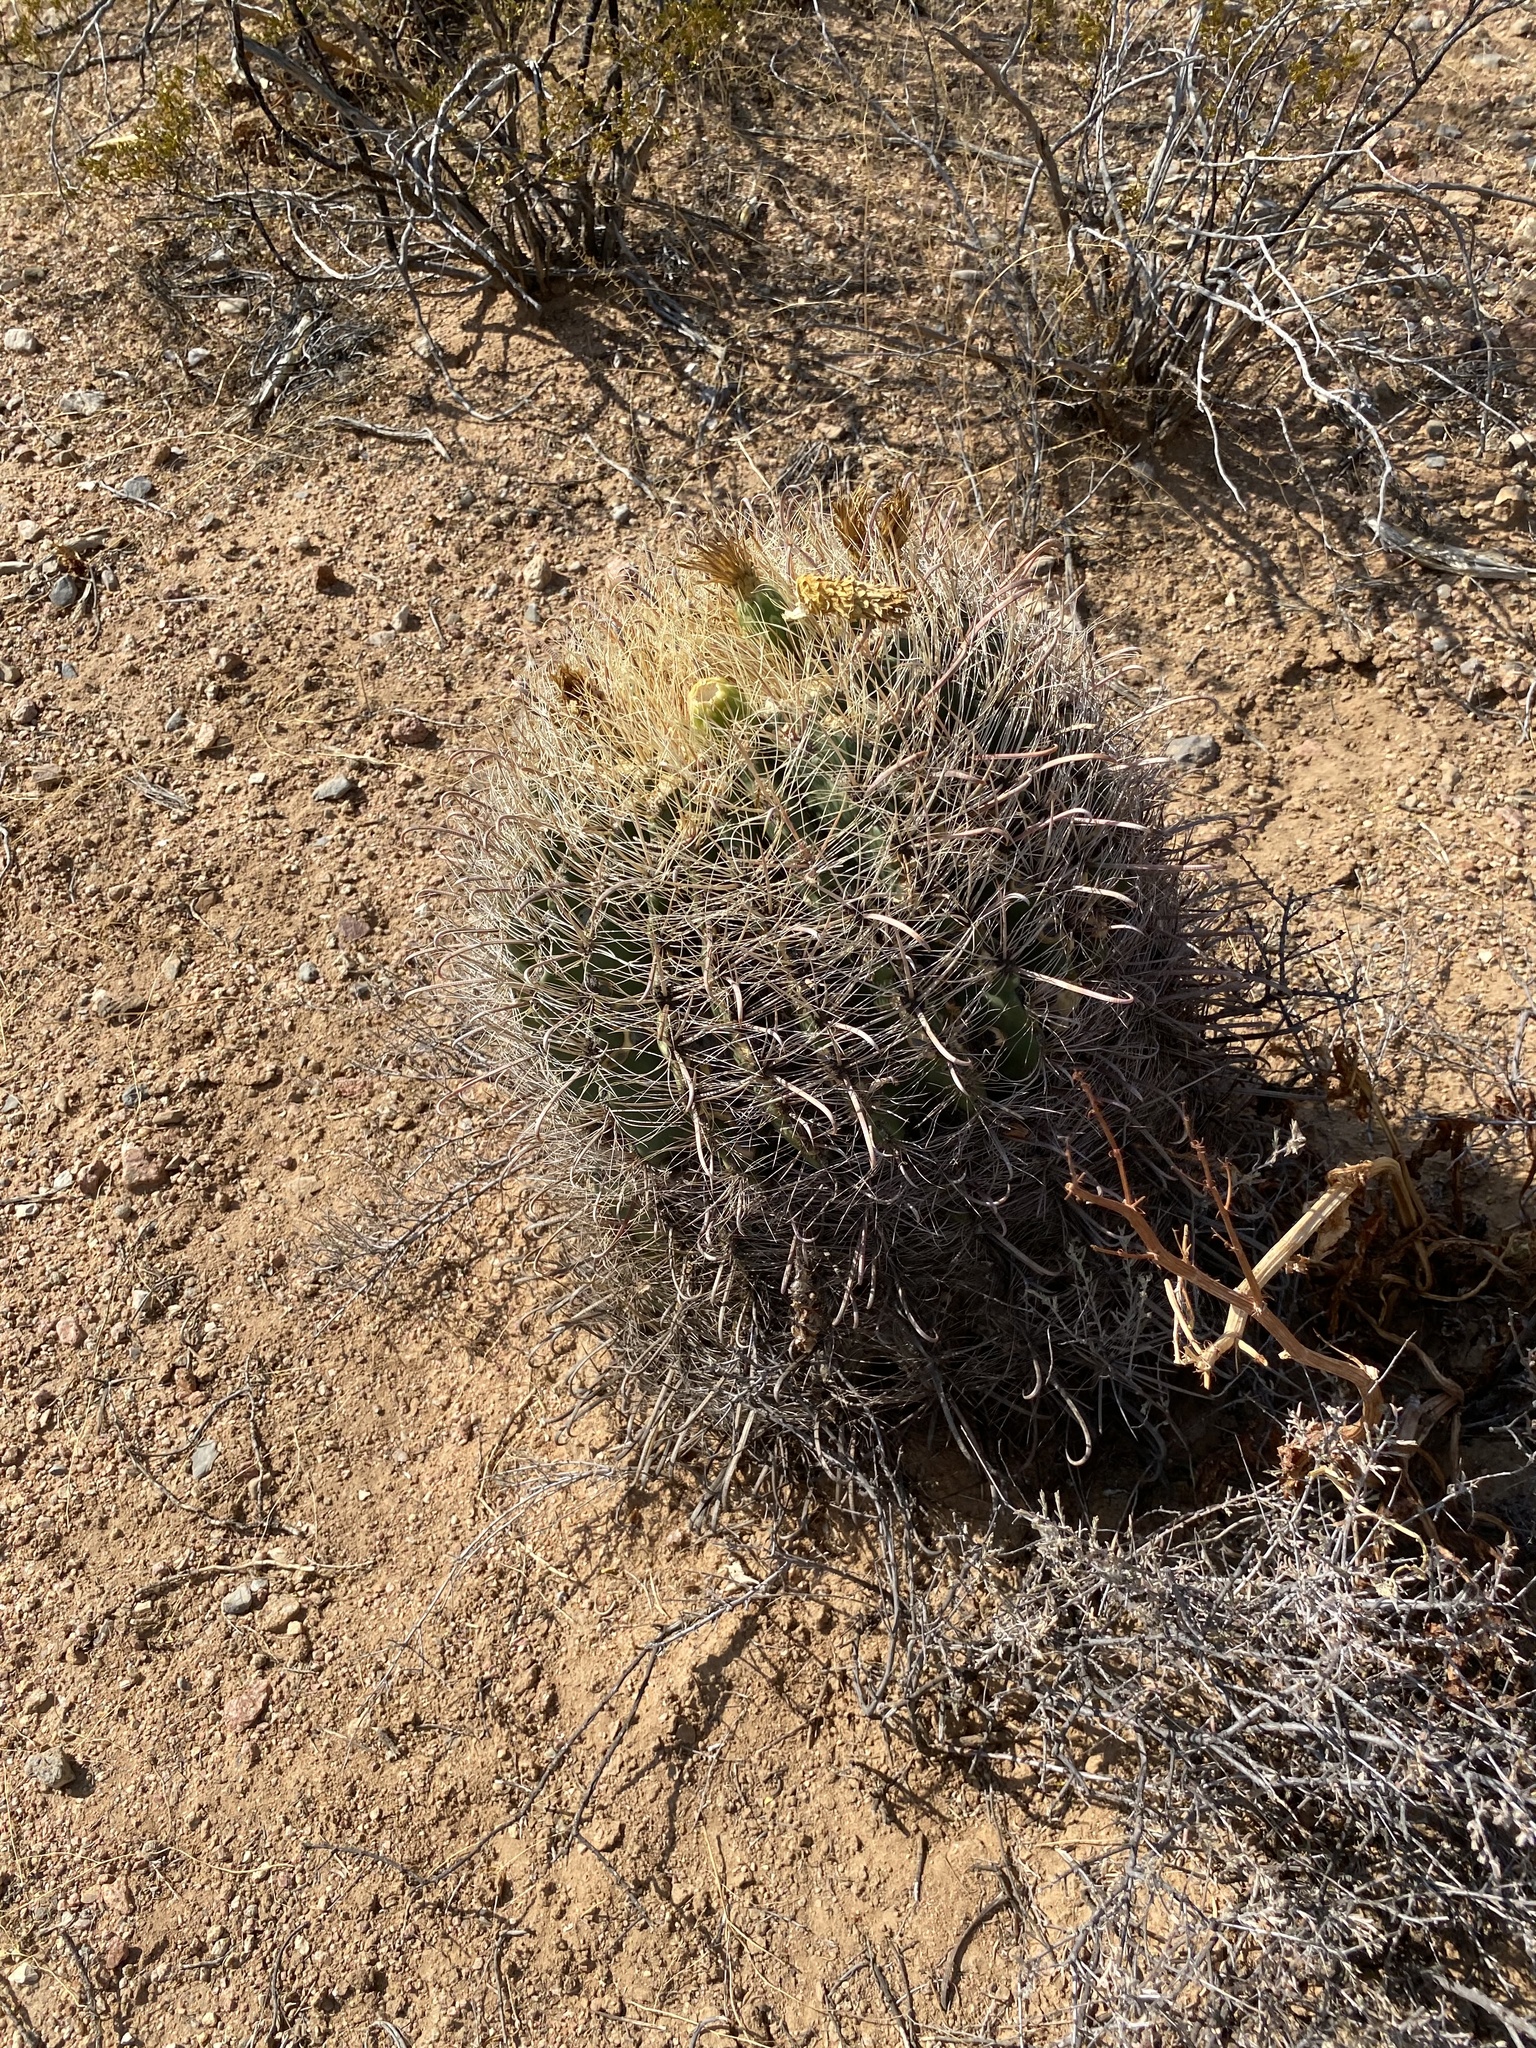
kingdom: Plantae
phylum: Tracheophyta
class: Magnoliopsida
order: Caryophyllales
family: Cactaceae
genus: Ferocactus
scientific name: Ferocactus wislizeni
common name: Candy barrel cactus
